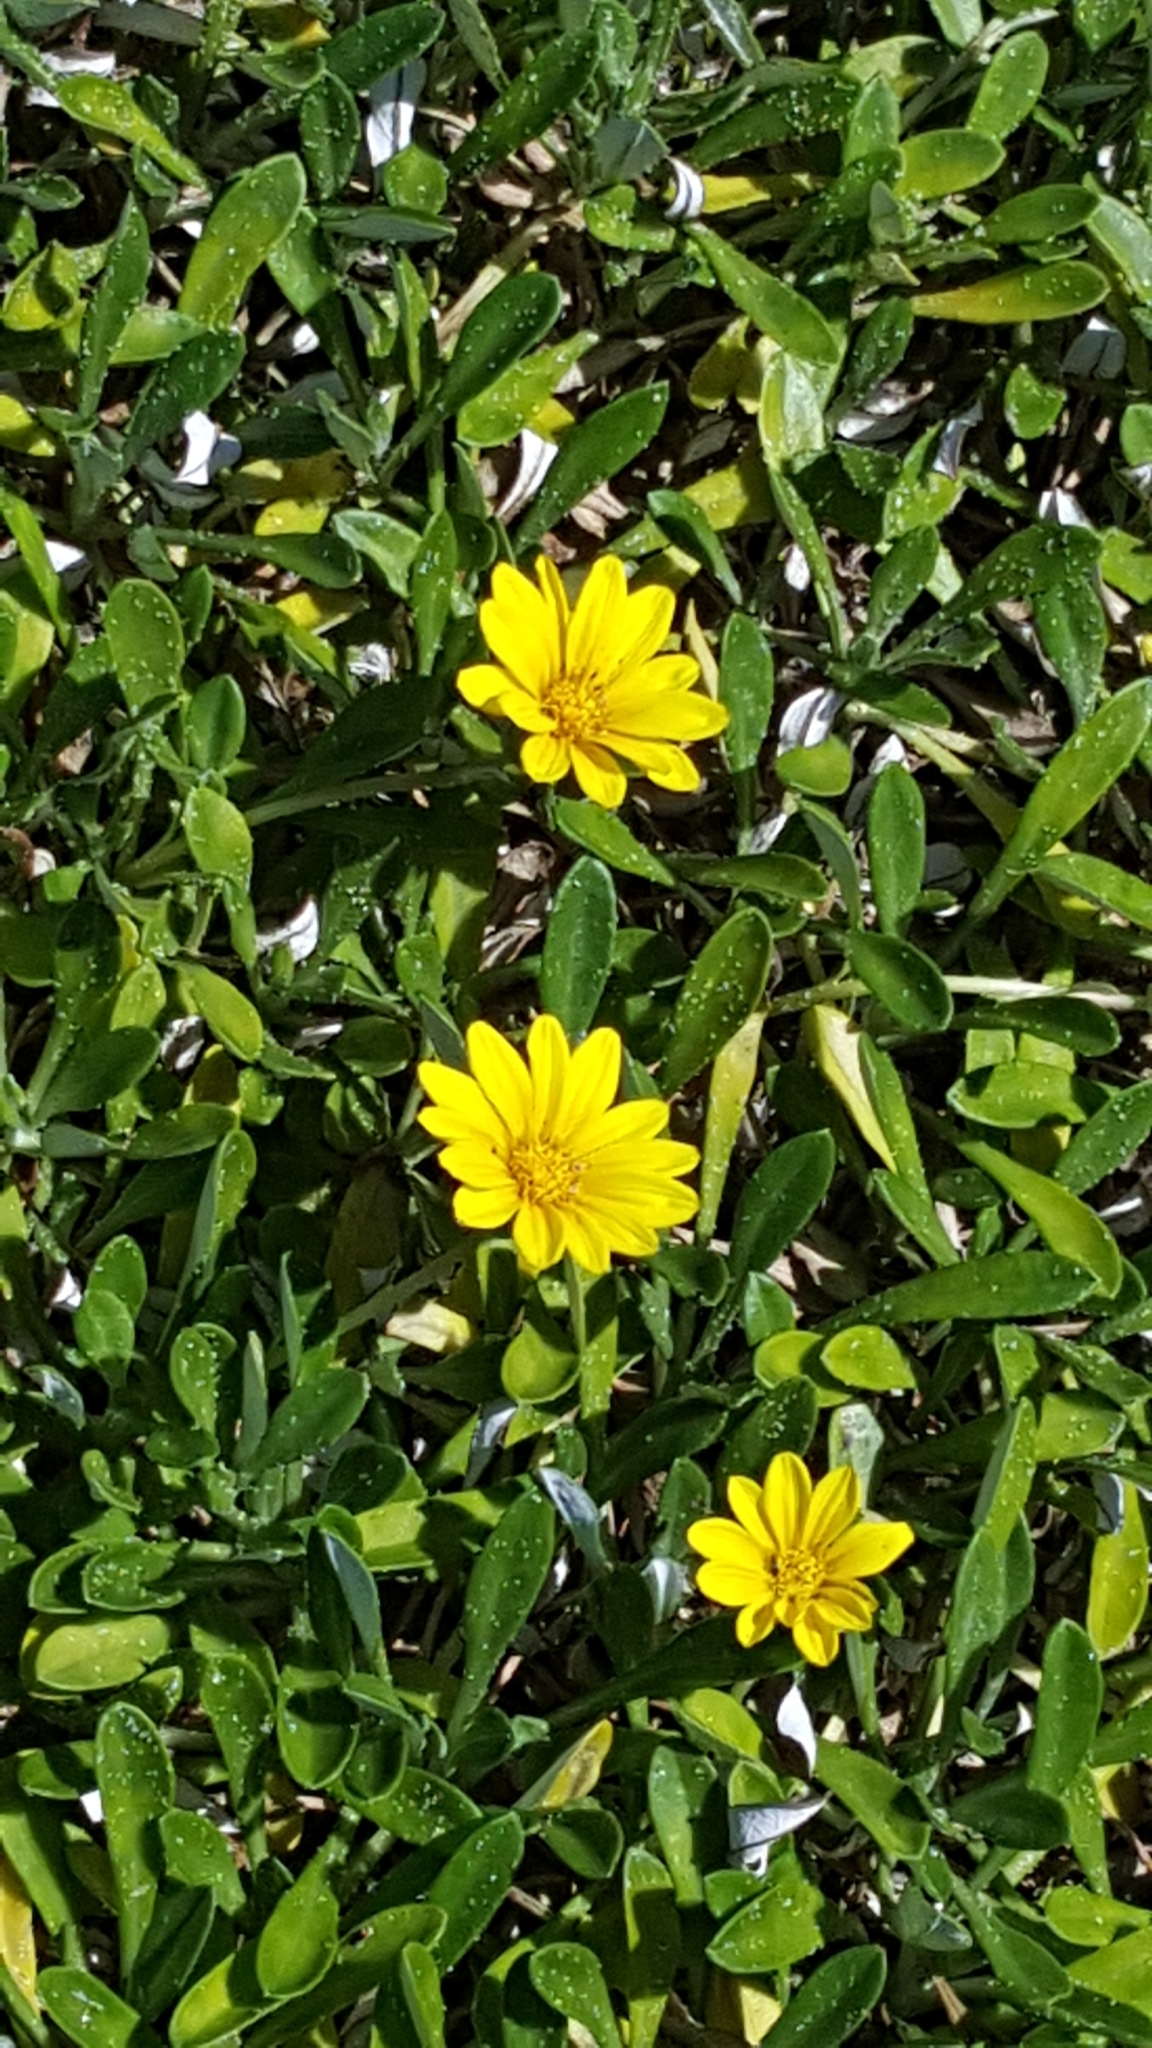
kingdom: Plantae
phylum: Tracheophyta
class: Magnoliopsida
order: Asterales
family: Asteraceae
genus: Gazania
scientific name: Gazania rigens
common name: Treasureflower
